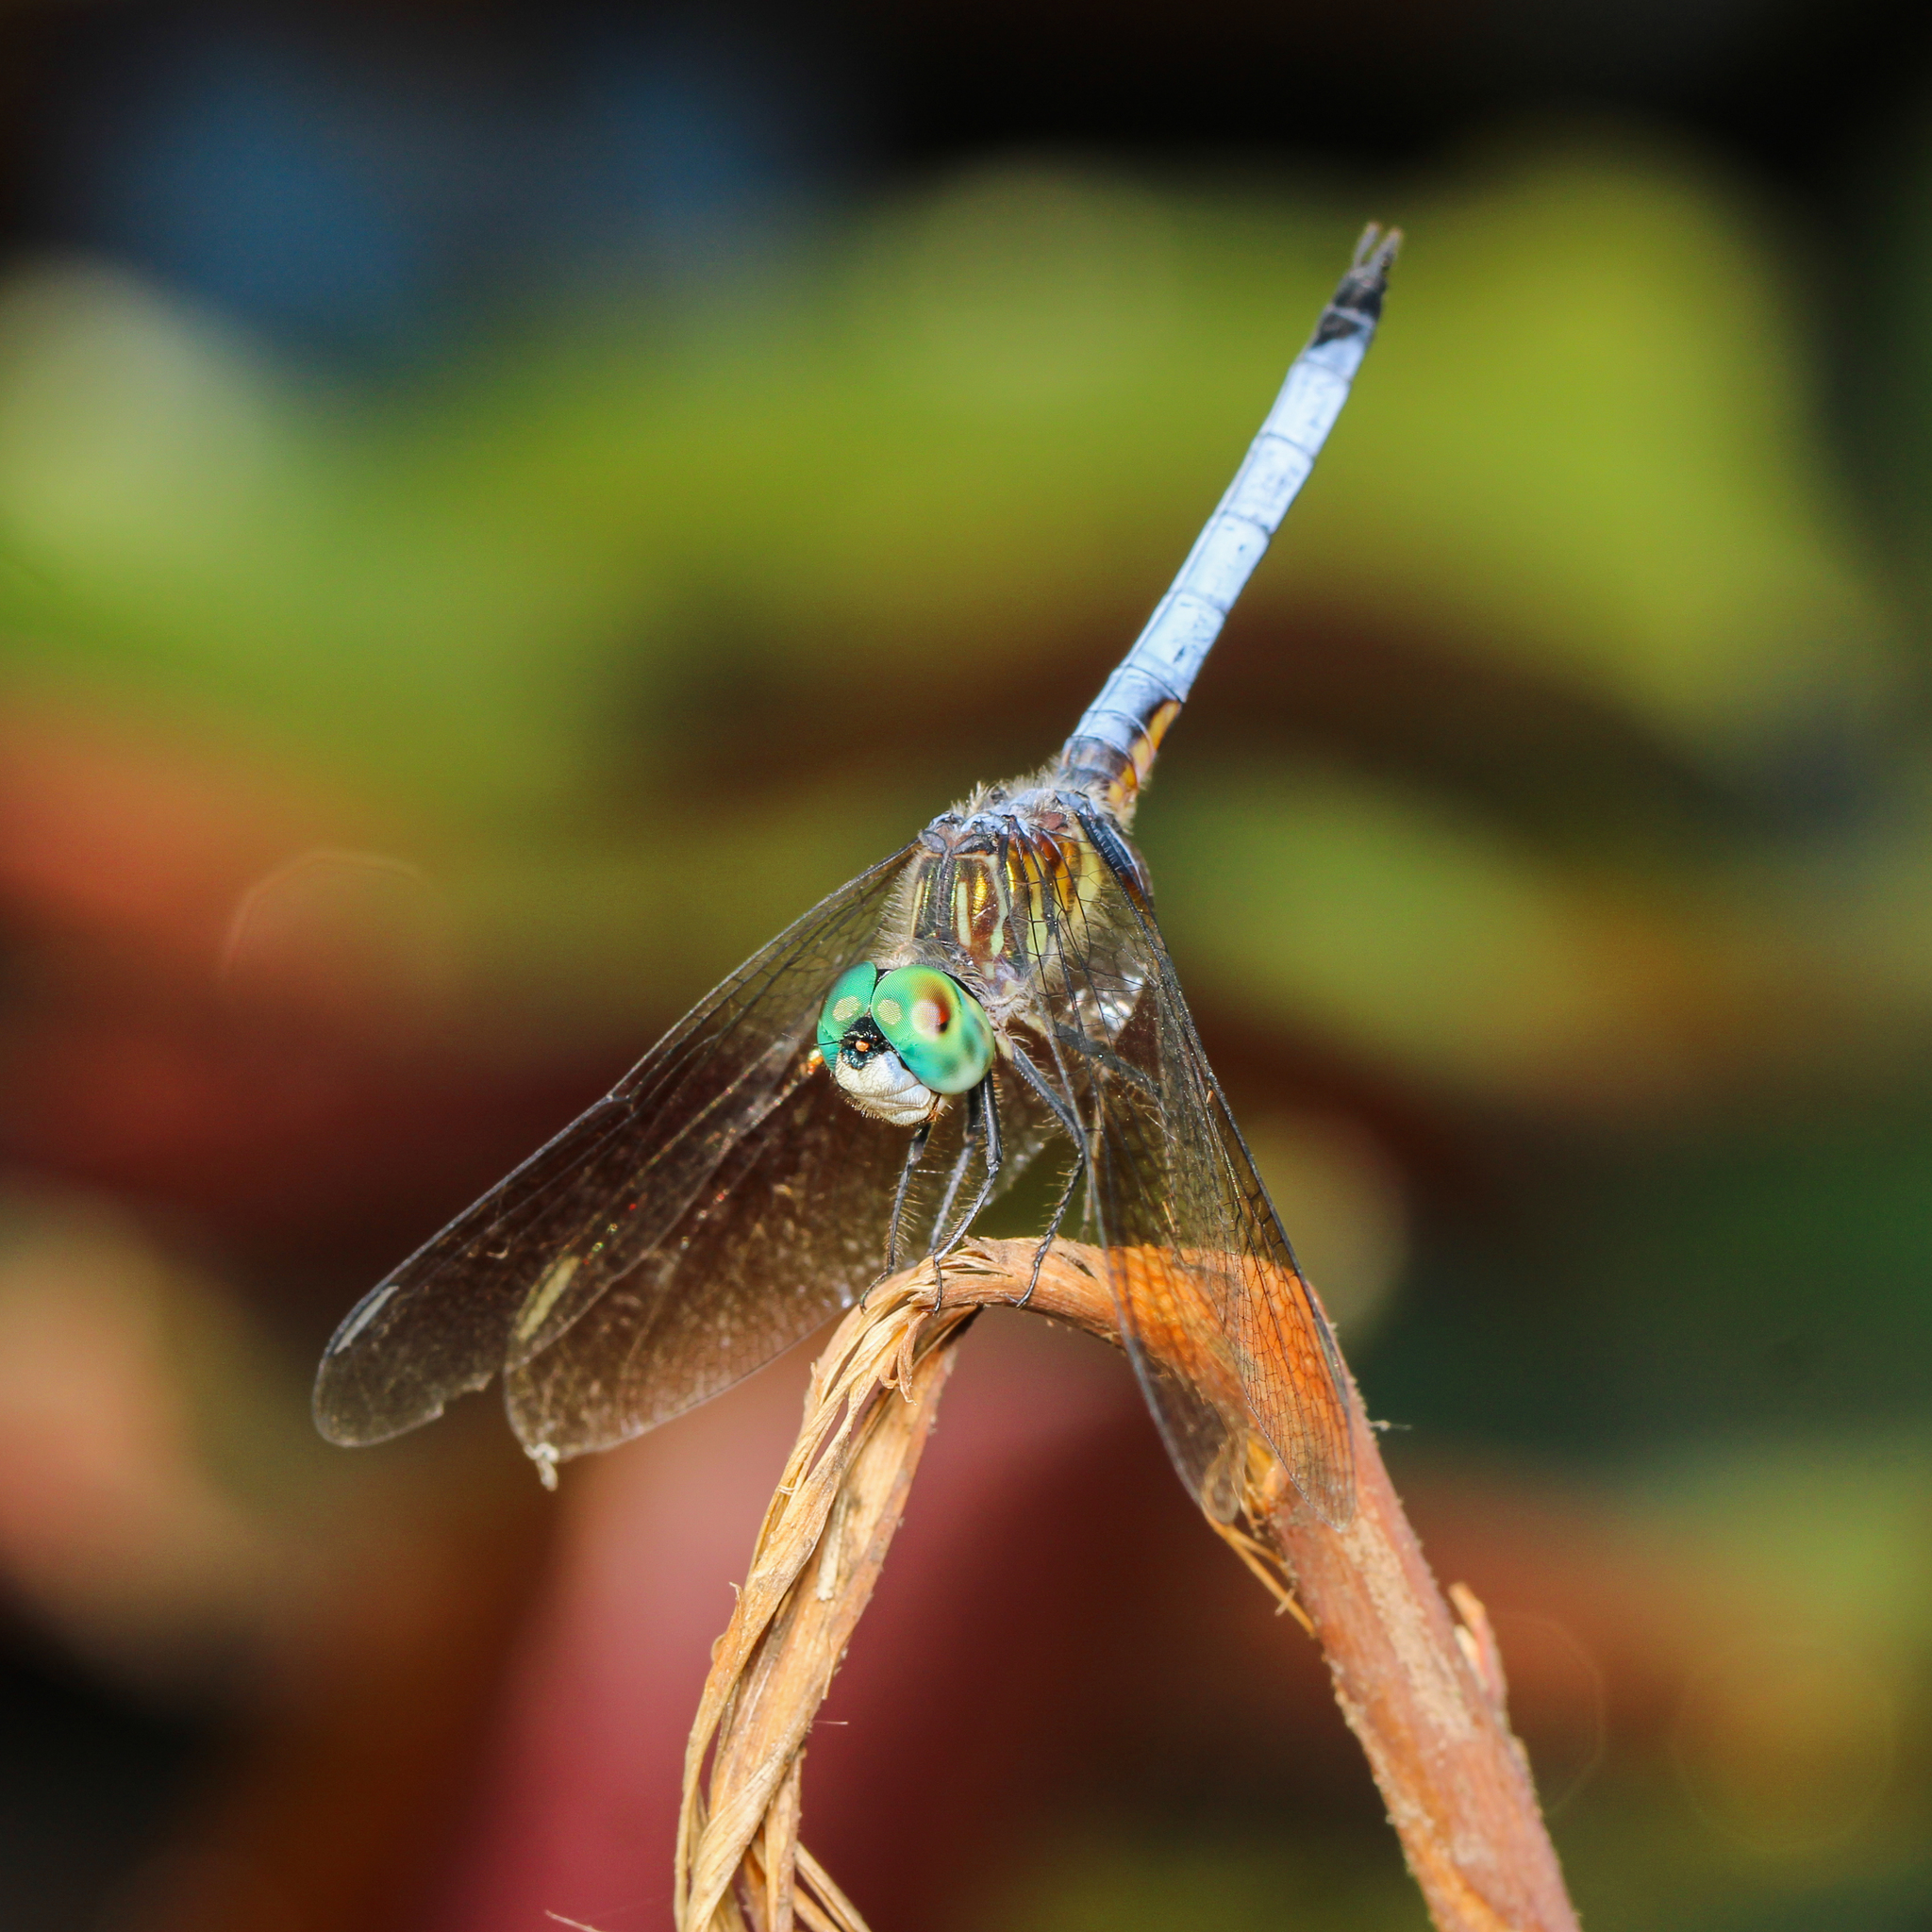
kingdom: Animalia
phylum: Arthropoda
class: Insecta
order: Odonata
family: Libellulidae
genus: Pachydiplax
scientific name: Pachydiplax longipennis
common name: Blue dasher
